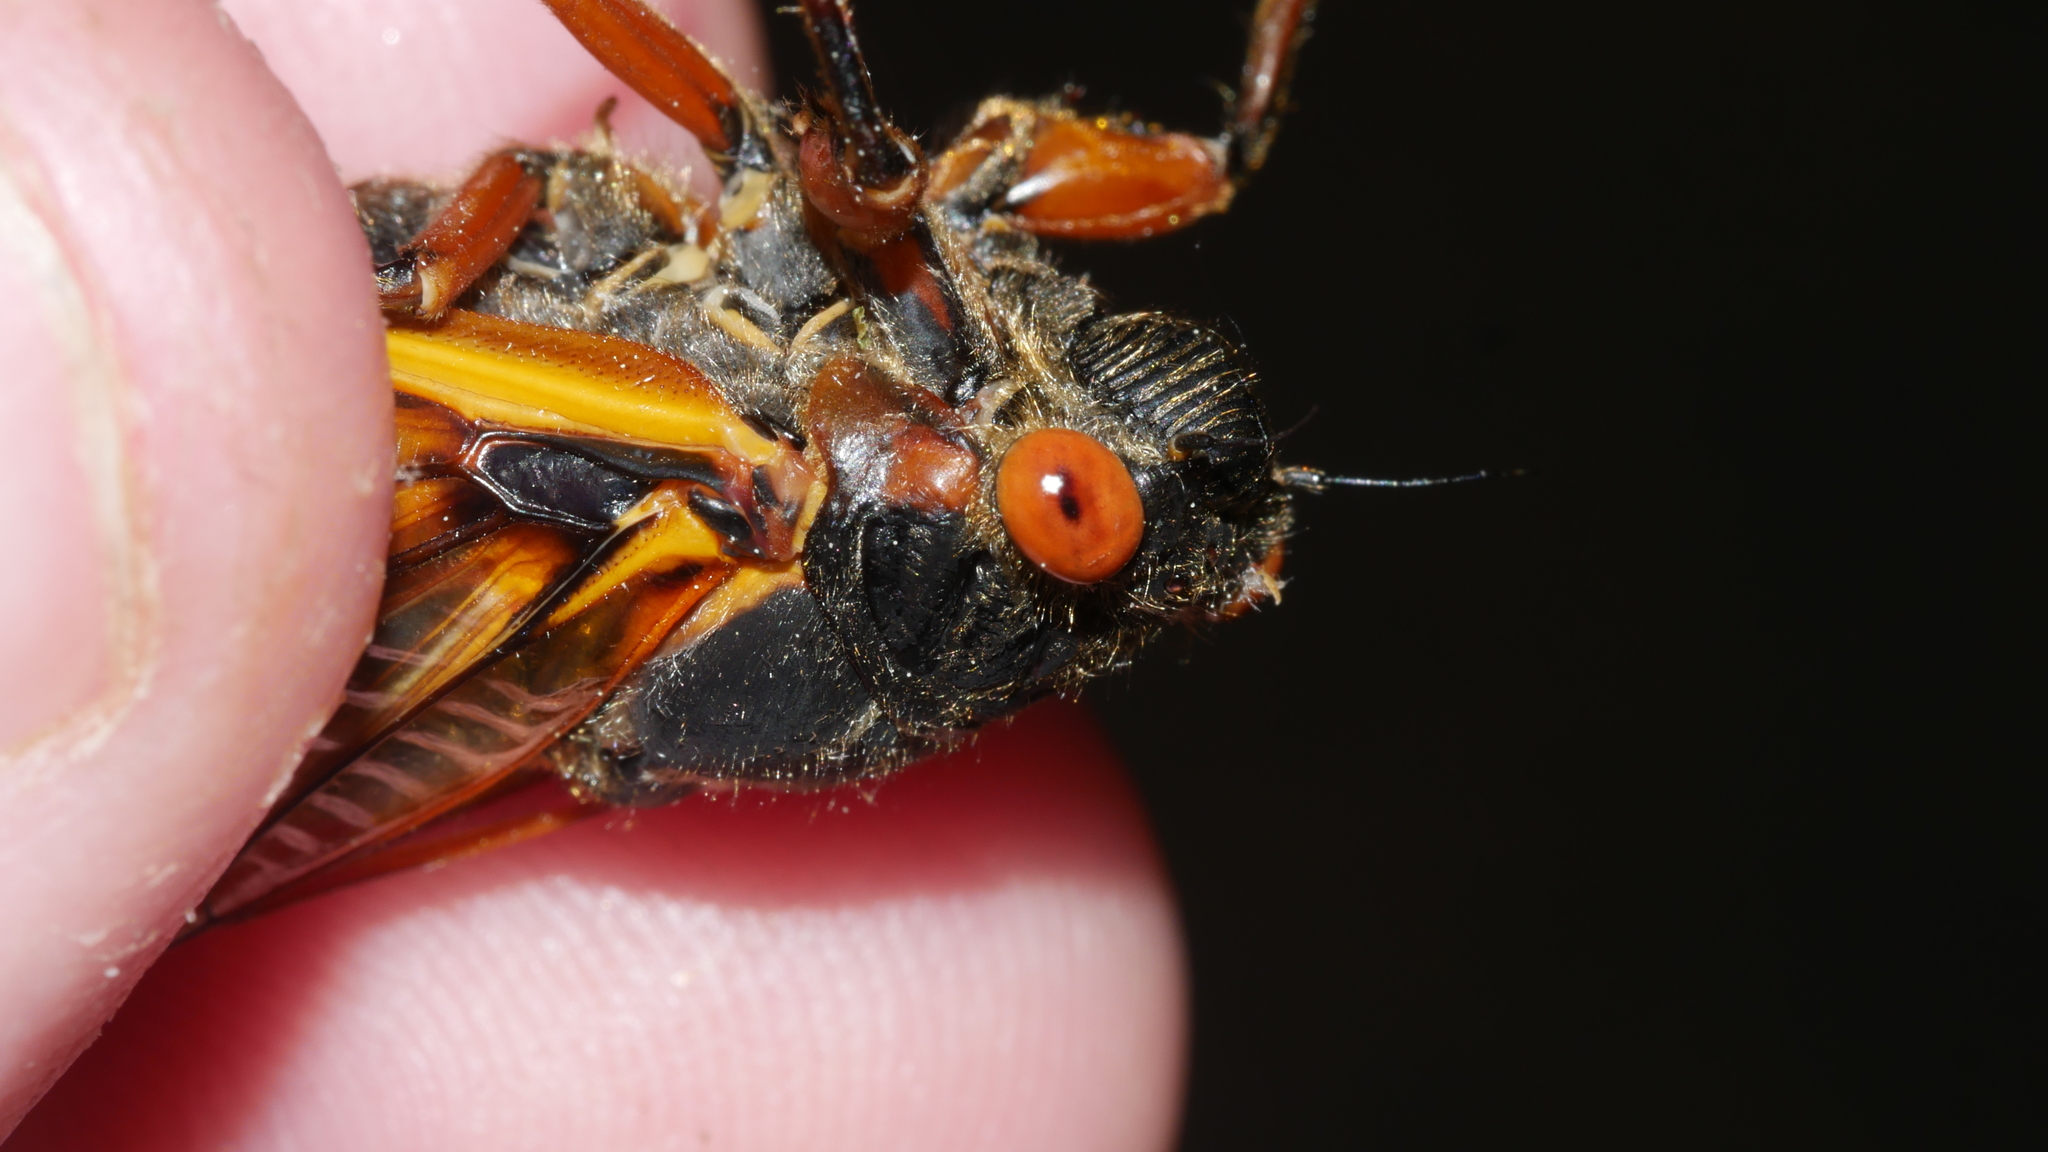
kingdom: Animalia
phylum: Arthropoda
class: Insecta
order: Hemiptera
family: Cicadidae
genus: Magicicada
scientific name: Magicicada septendecim
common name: Periodical cicada
